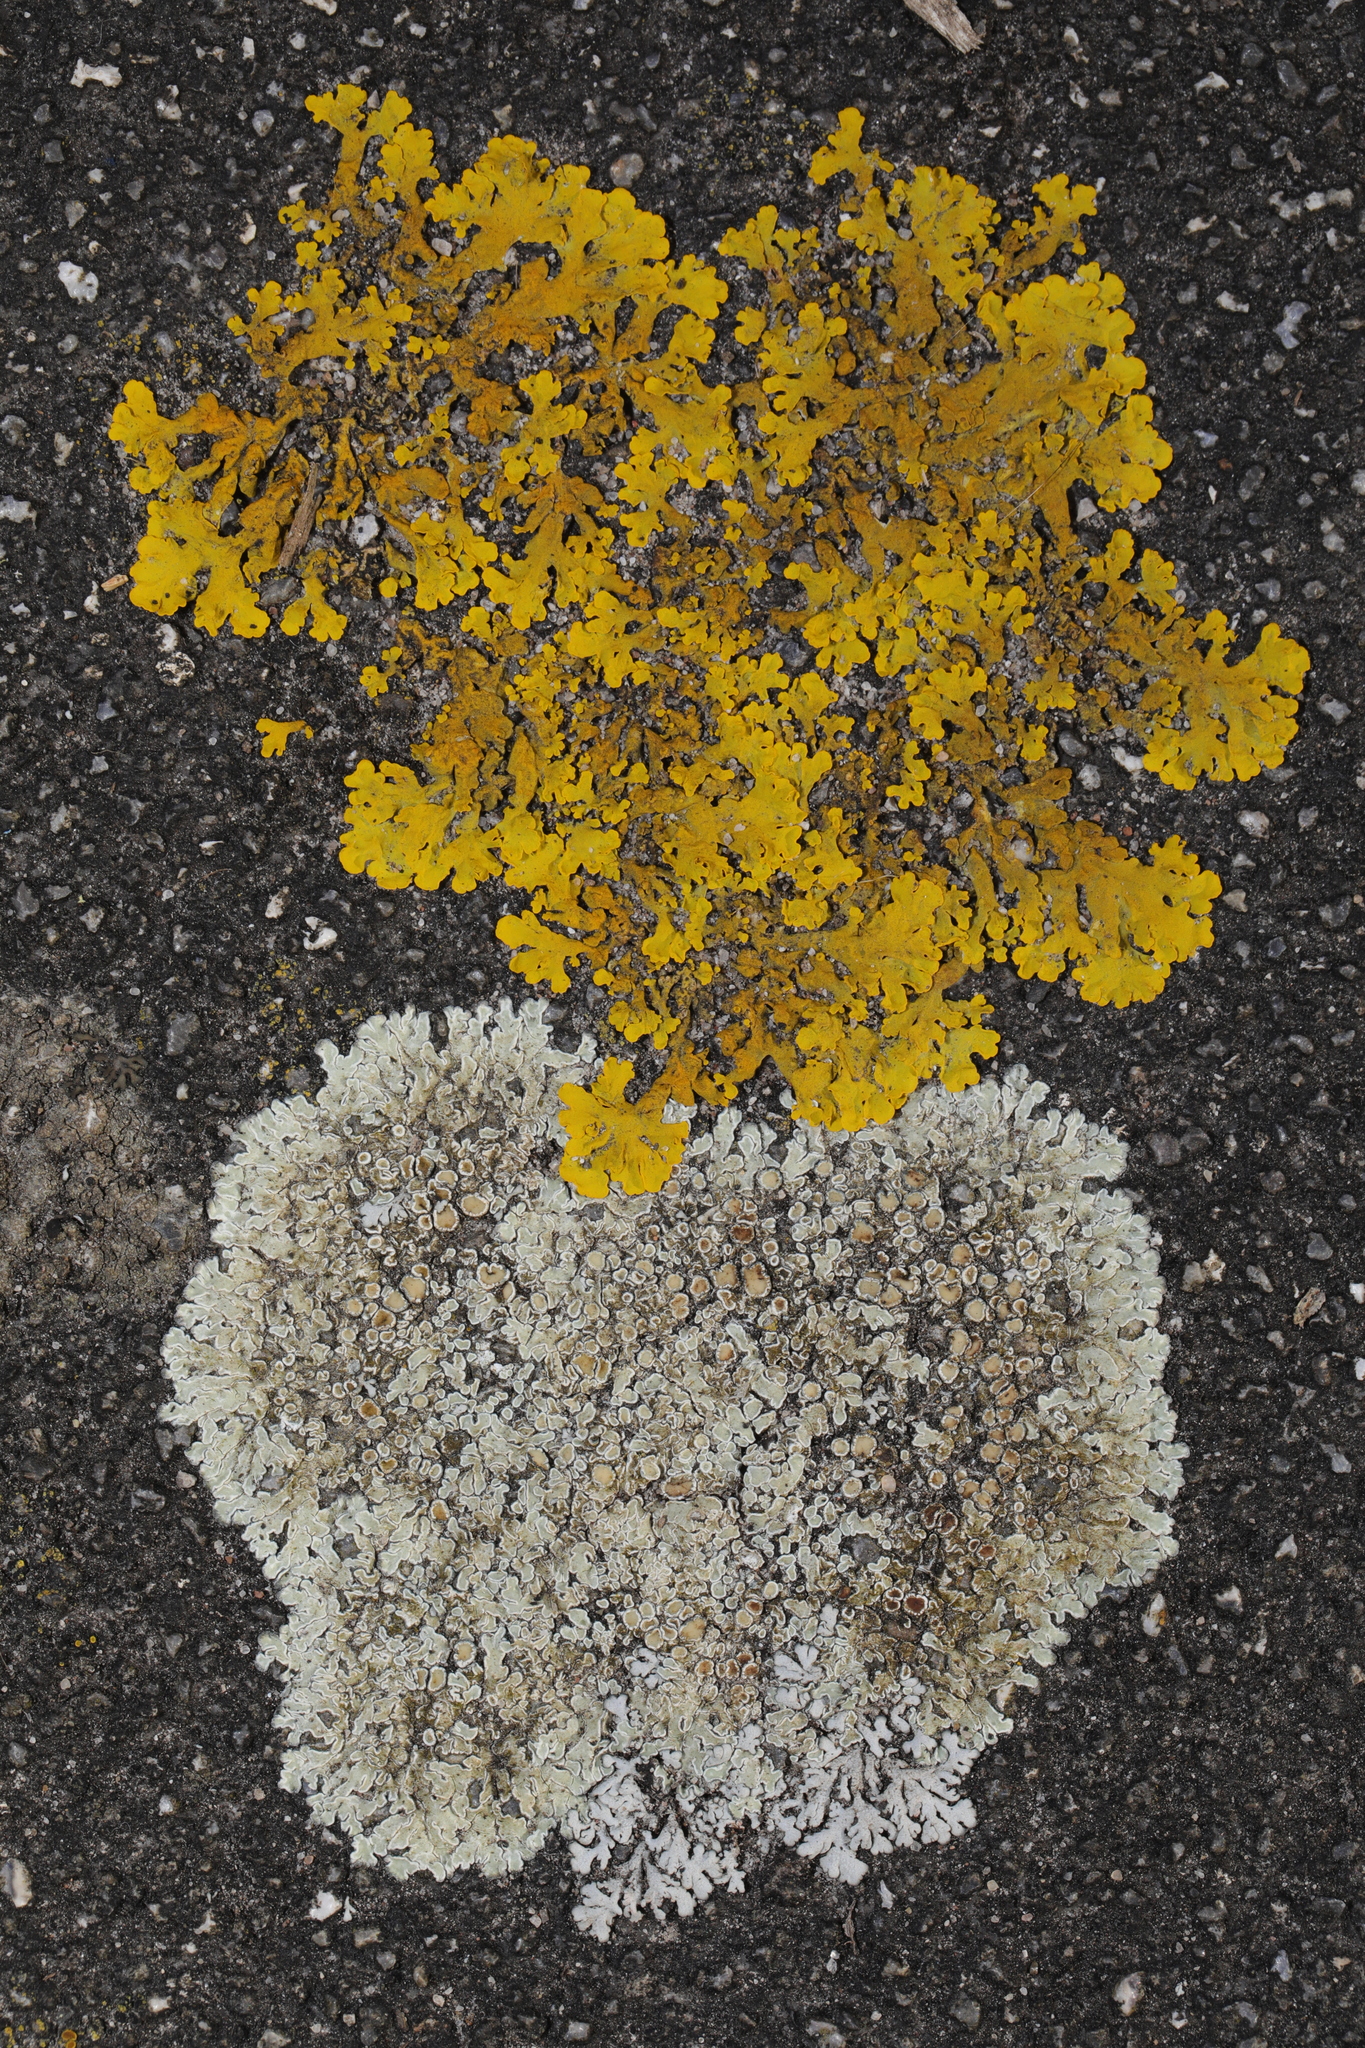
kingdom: Fungi
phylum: Ascomycota
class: Lecanoromycetes
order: Teloschistales
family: Teloschistaceae
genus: Xanthoria
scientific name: Xanthoria parietina
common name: Common orange lichen
